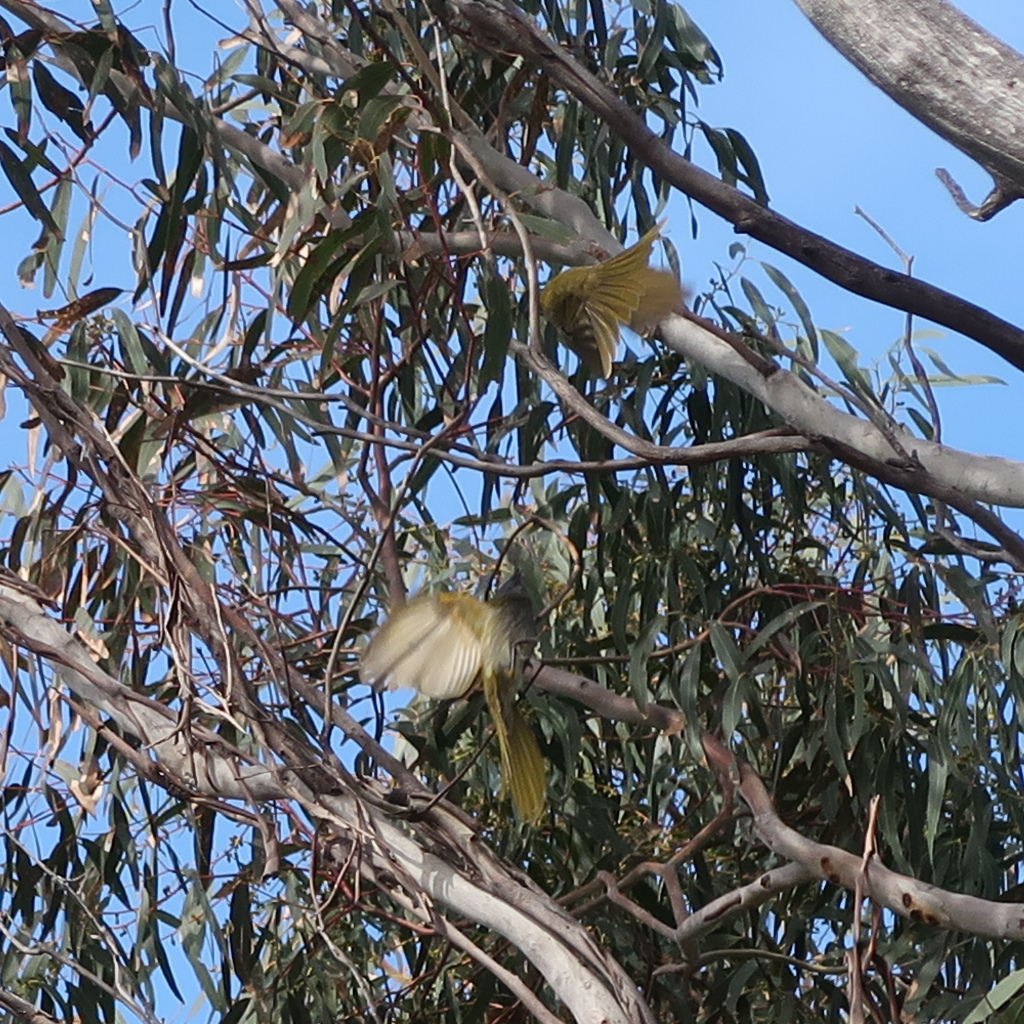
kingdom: Animalia
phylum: Chordata
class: Aves
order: Passeriformes
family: Meliphagidae
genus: Nesoptilotis
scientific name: Nesoptilotis flavicollis
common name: Yellow-throated honeyeater
